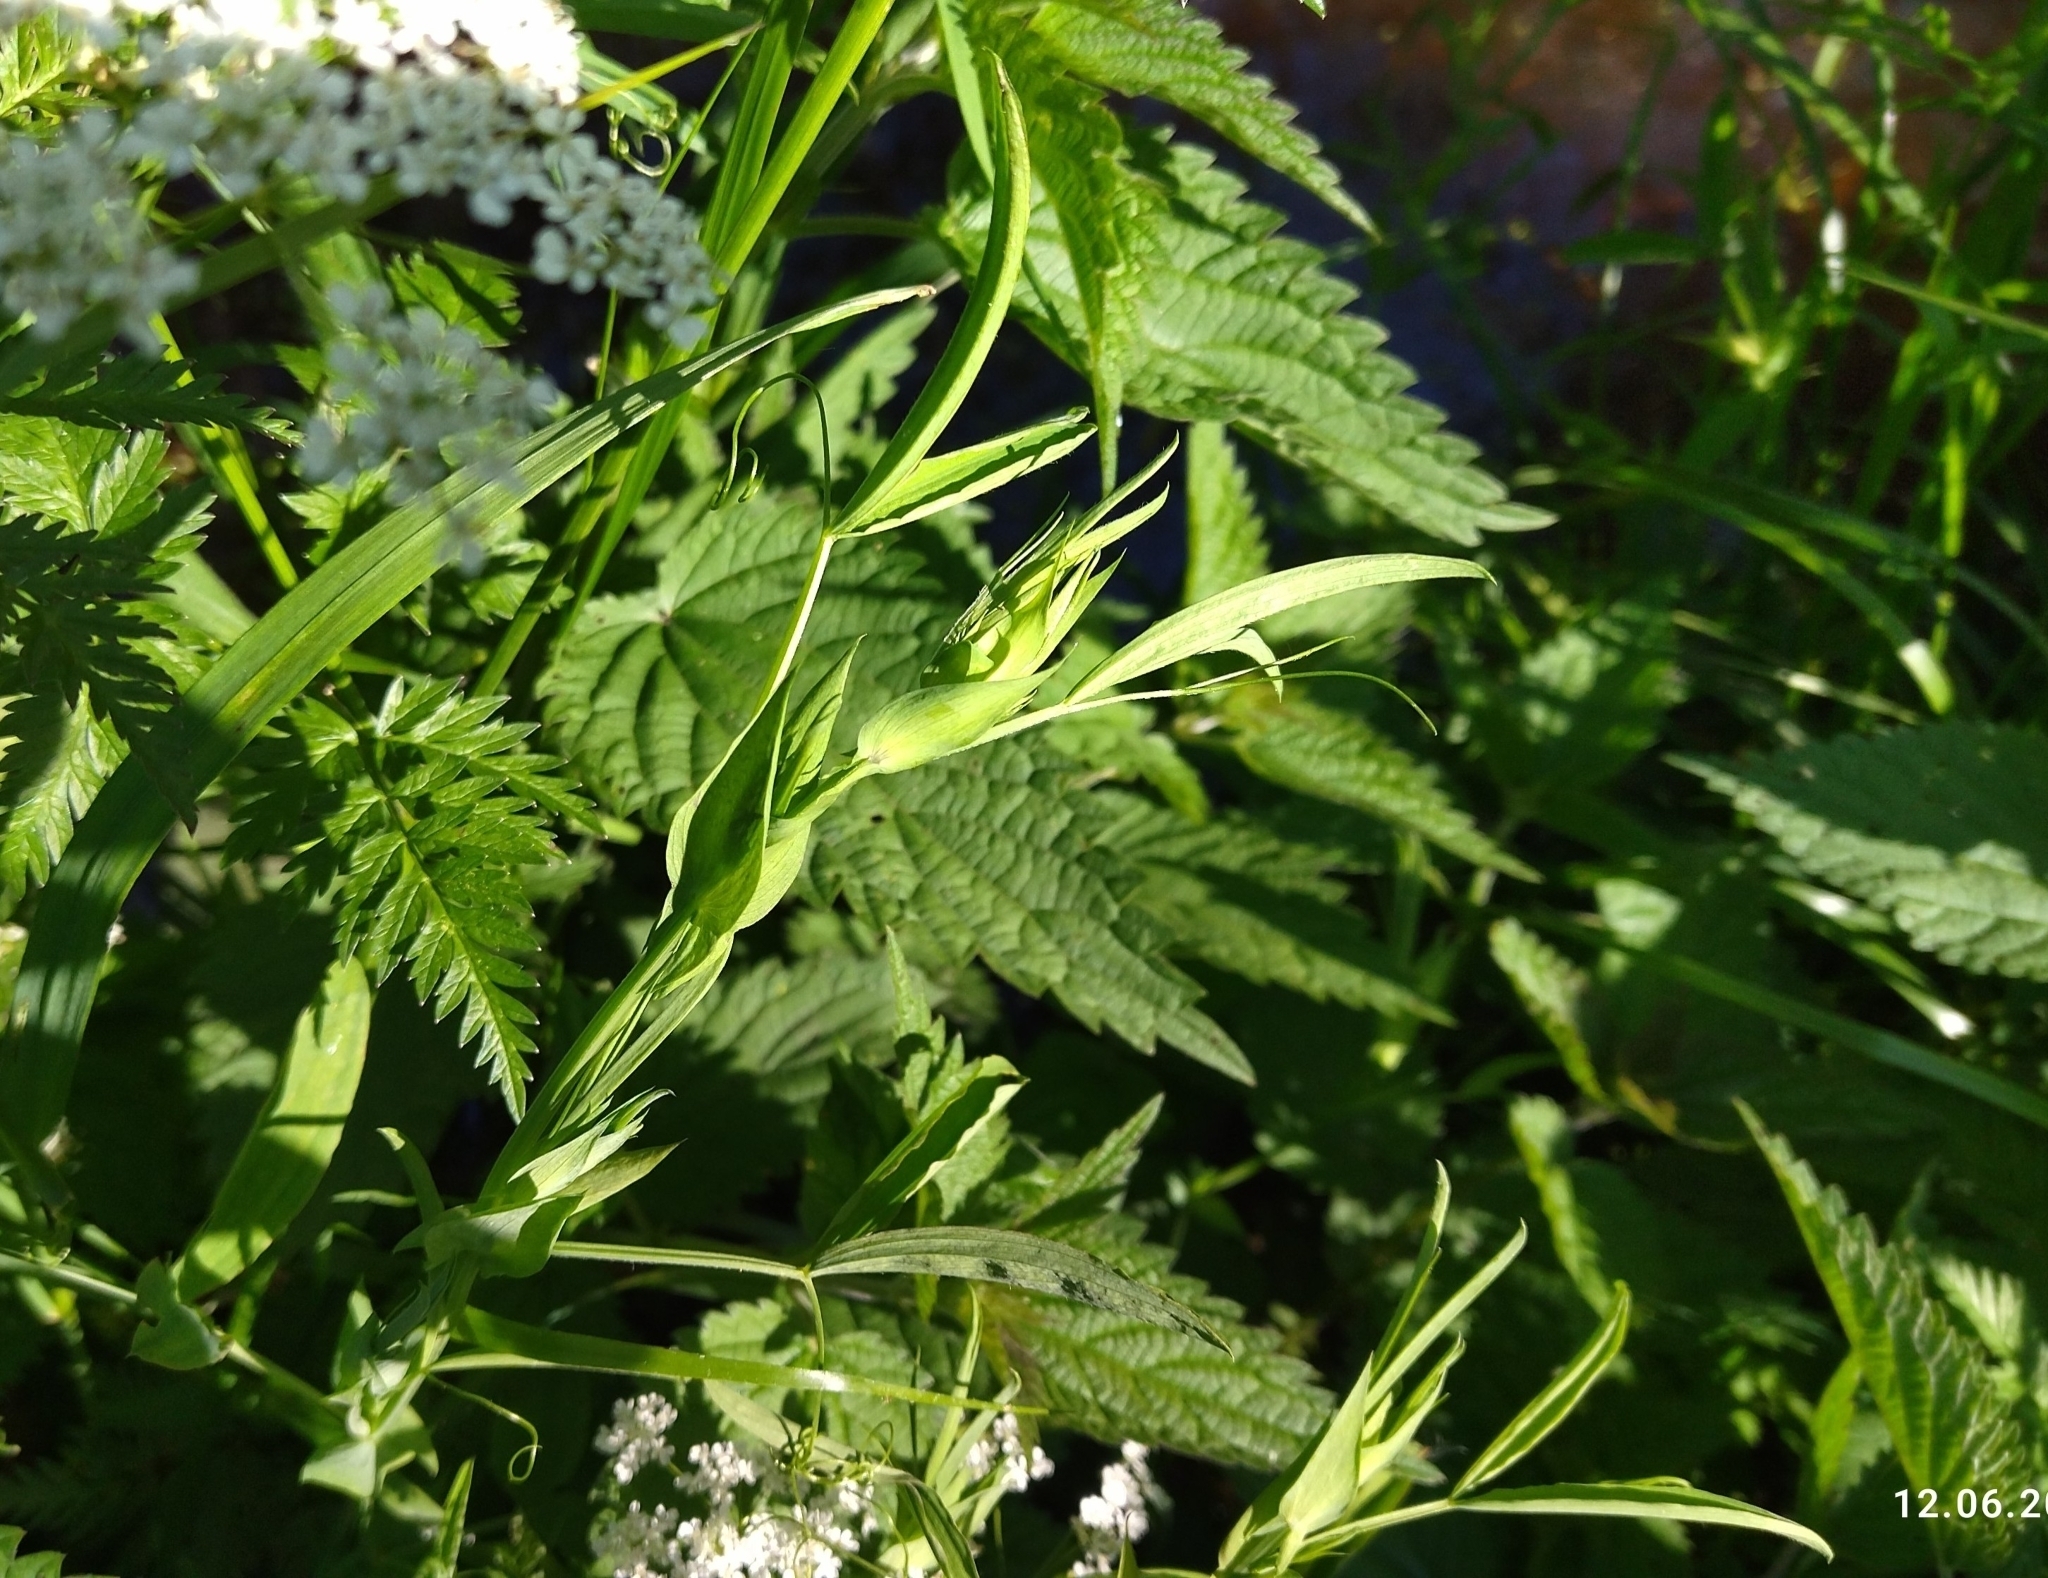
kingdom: Plantae
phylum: Tracheophyta
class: Magnoliopsida
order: Fabales
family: Fabaceae
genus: Lathyrus
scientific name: Lathyrus pratensis
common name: Meadow vetchling
